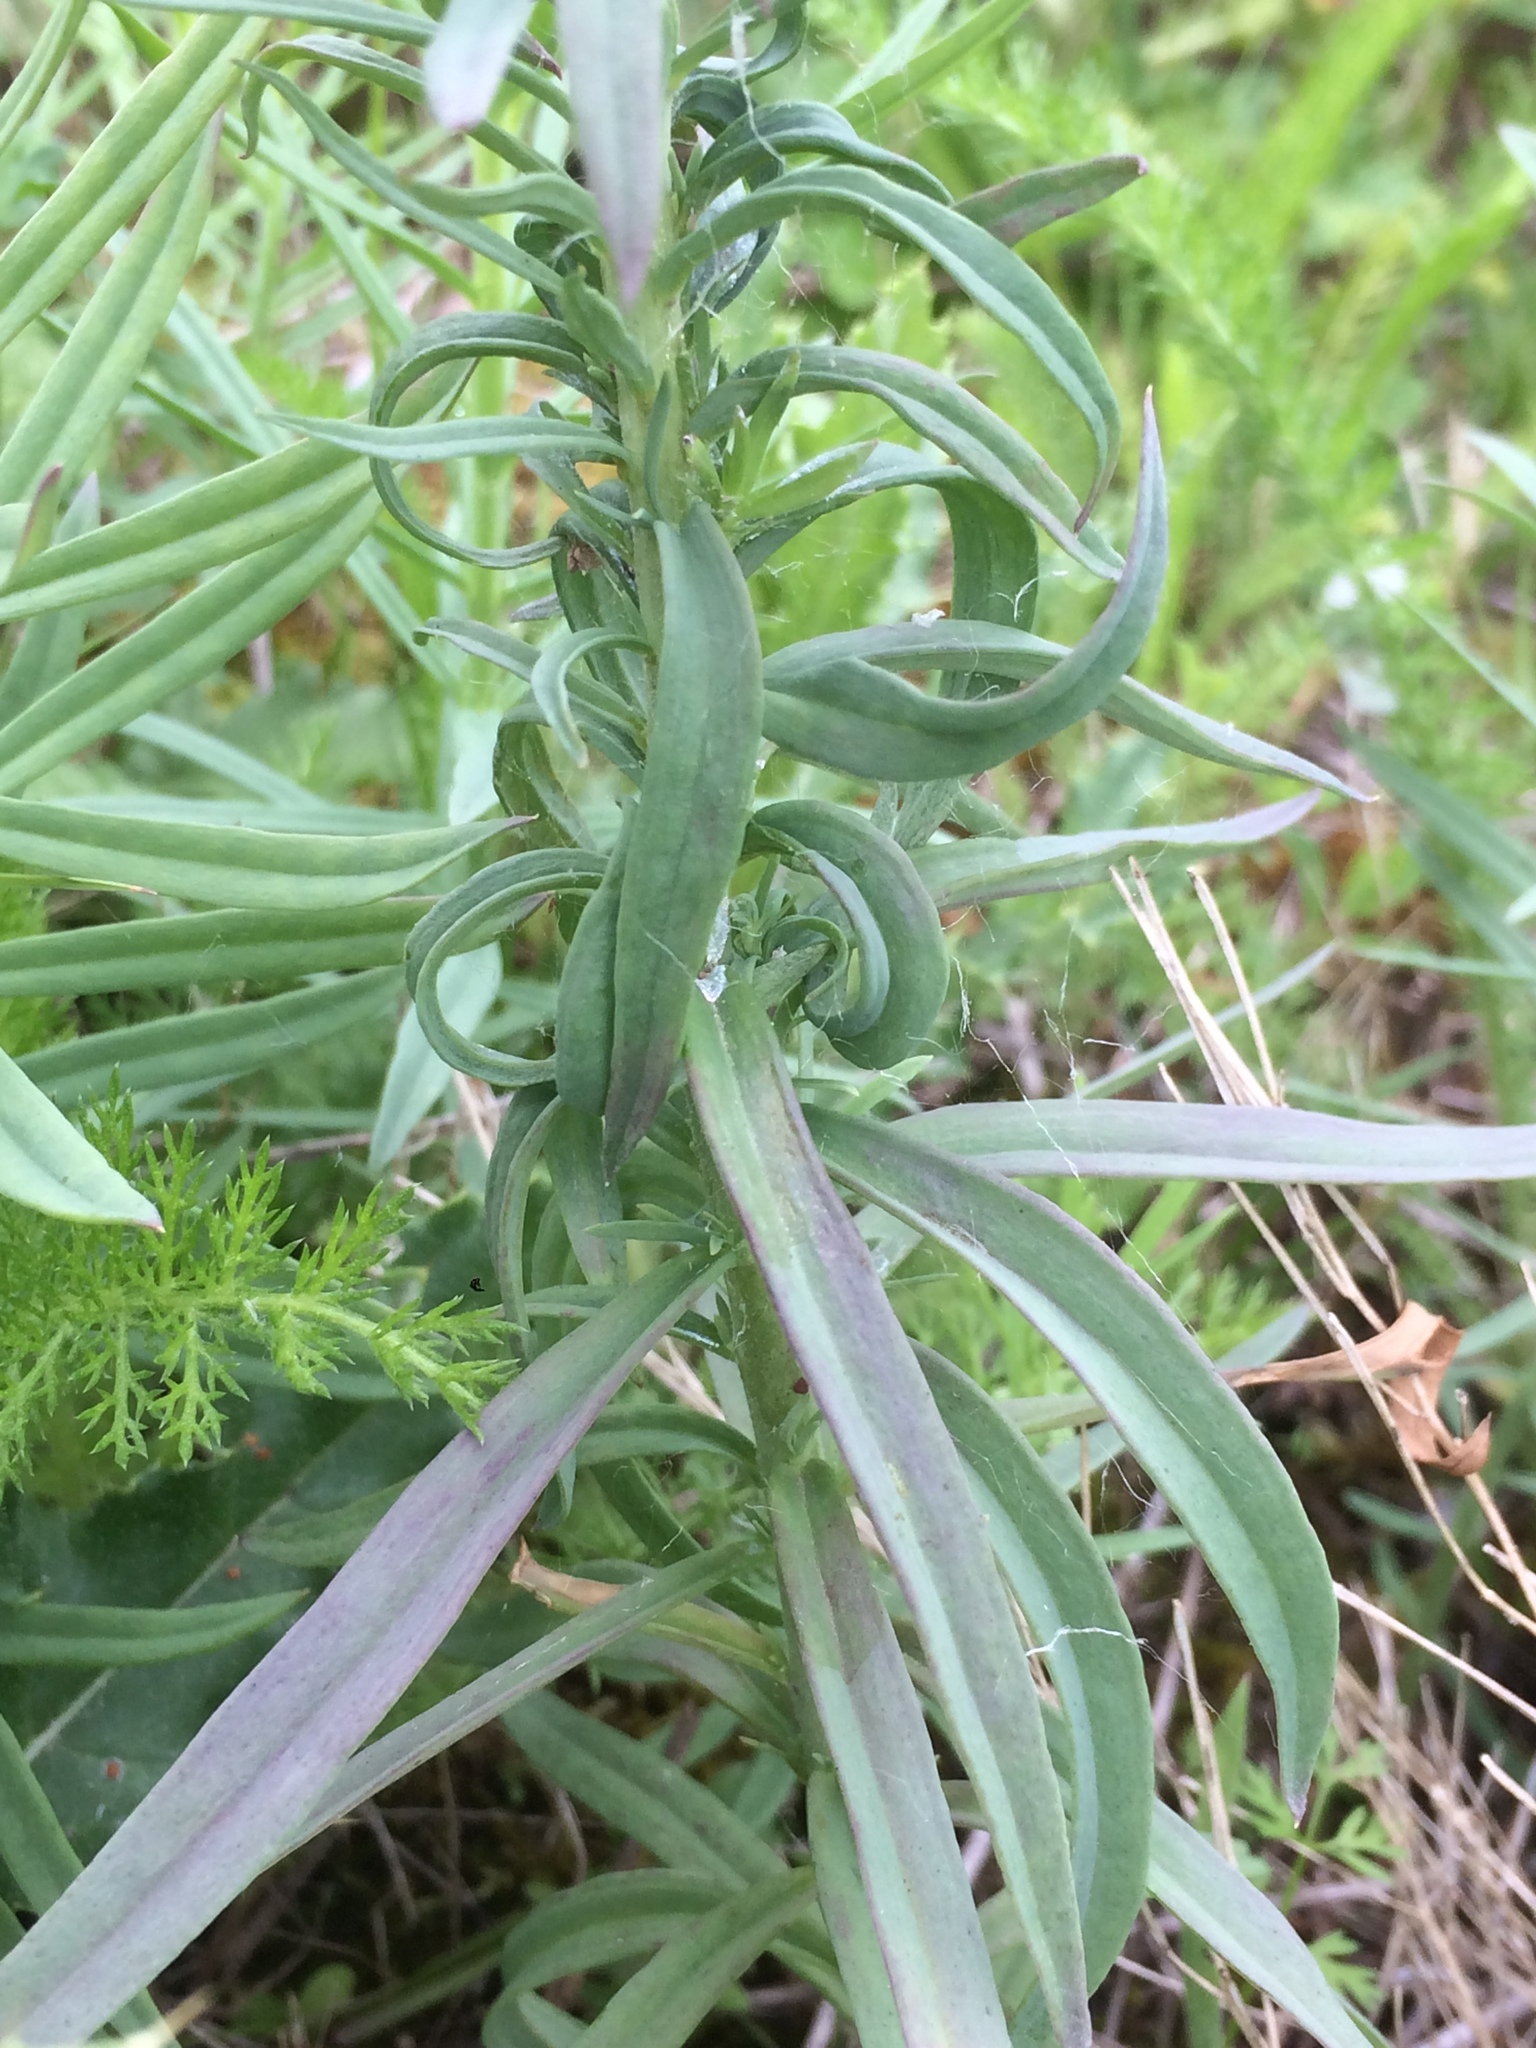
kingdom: Plantae
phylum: Tracheophyta
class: Magnoliopsida
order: Lamiales
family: Plantaginaceae
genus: Linaria
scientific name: Linaria vulgaris
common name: Butter and eggs
